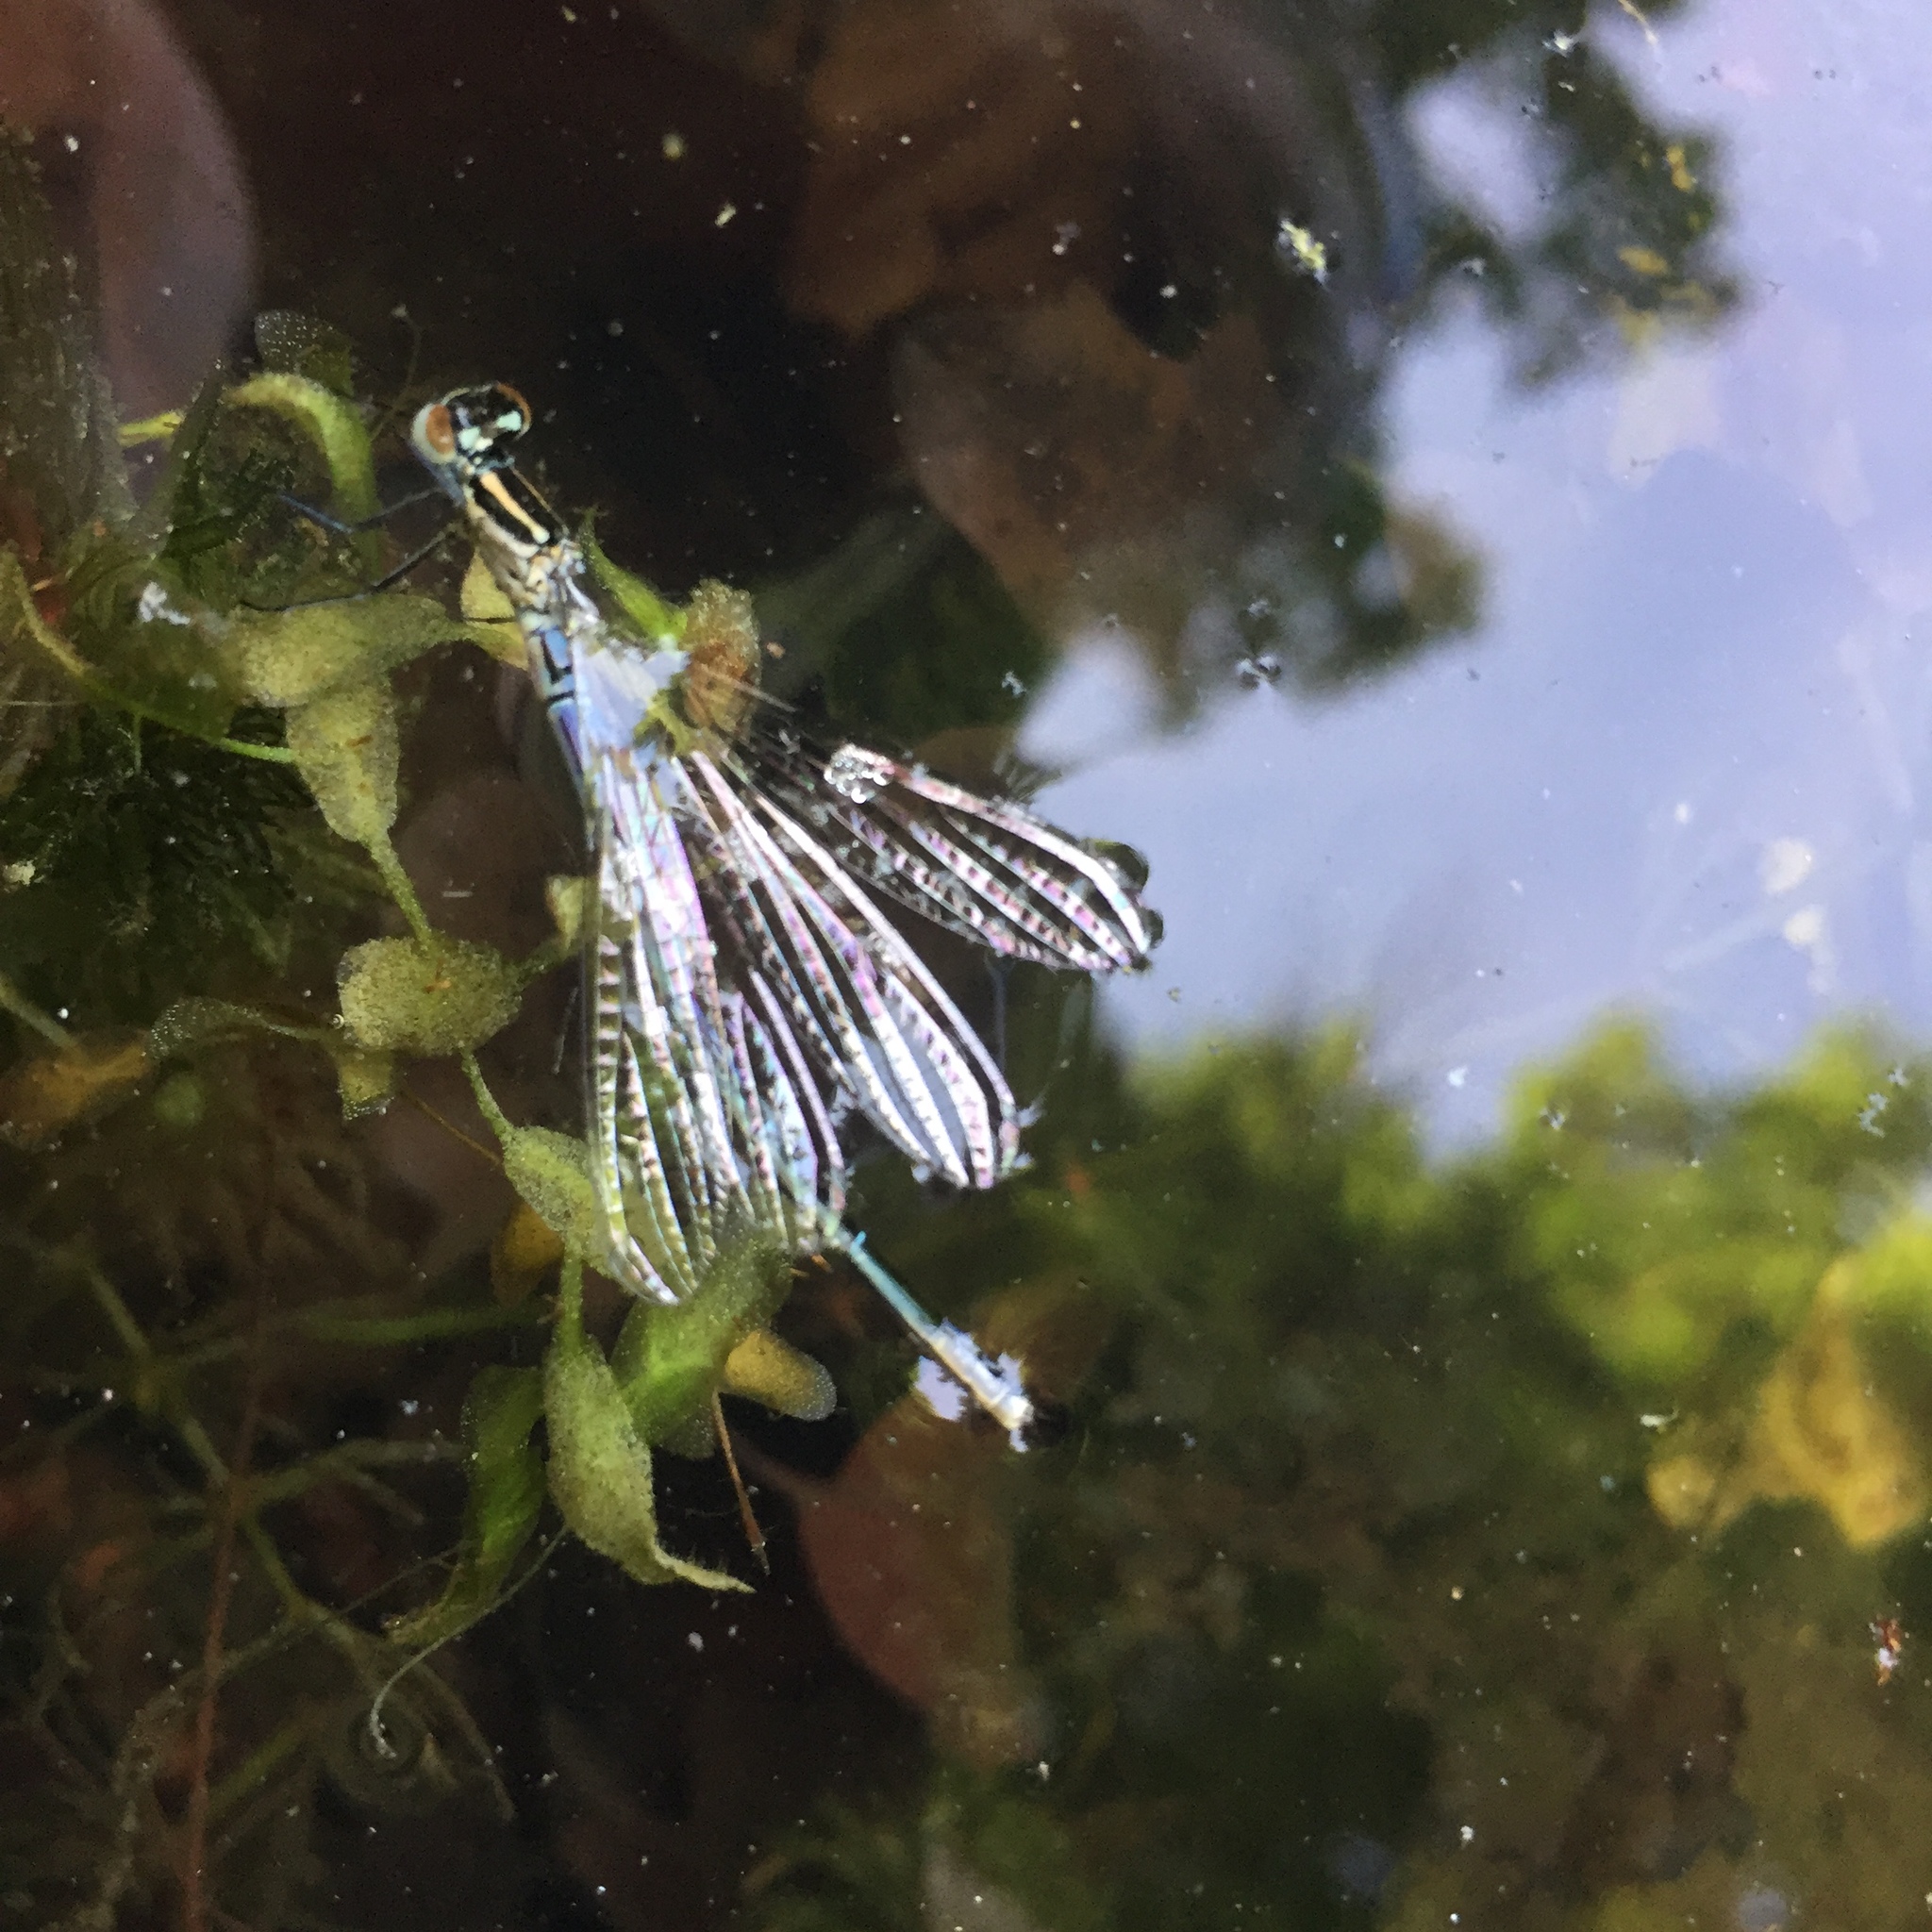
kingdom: Animalia
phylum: Arthropoda
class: Insecta
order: Odonata
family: Coenagrionidae
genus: Coenagrion
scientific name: Coenagrion puella
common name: Azure damselfly
